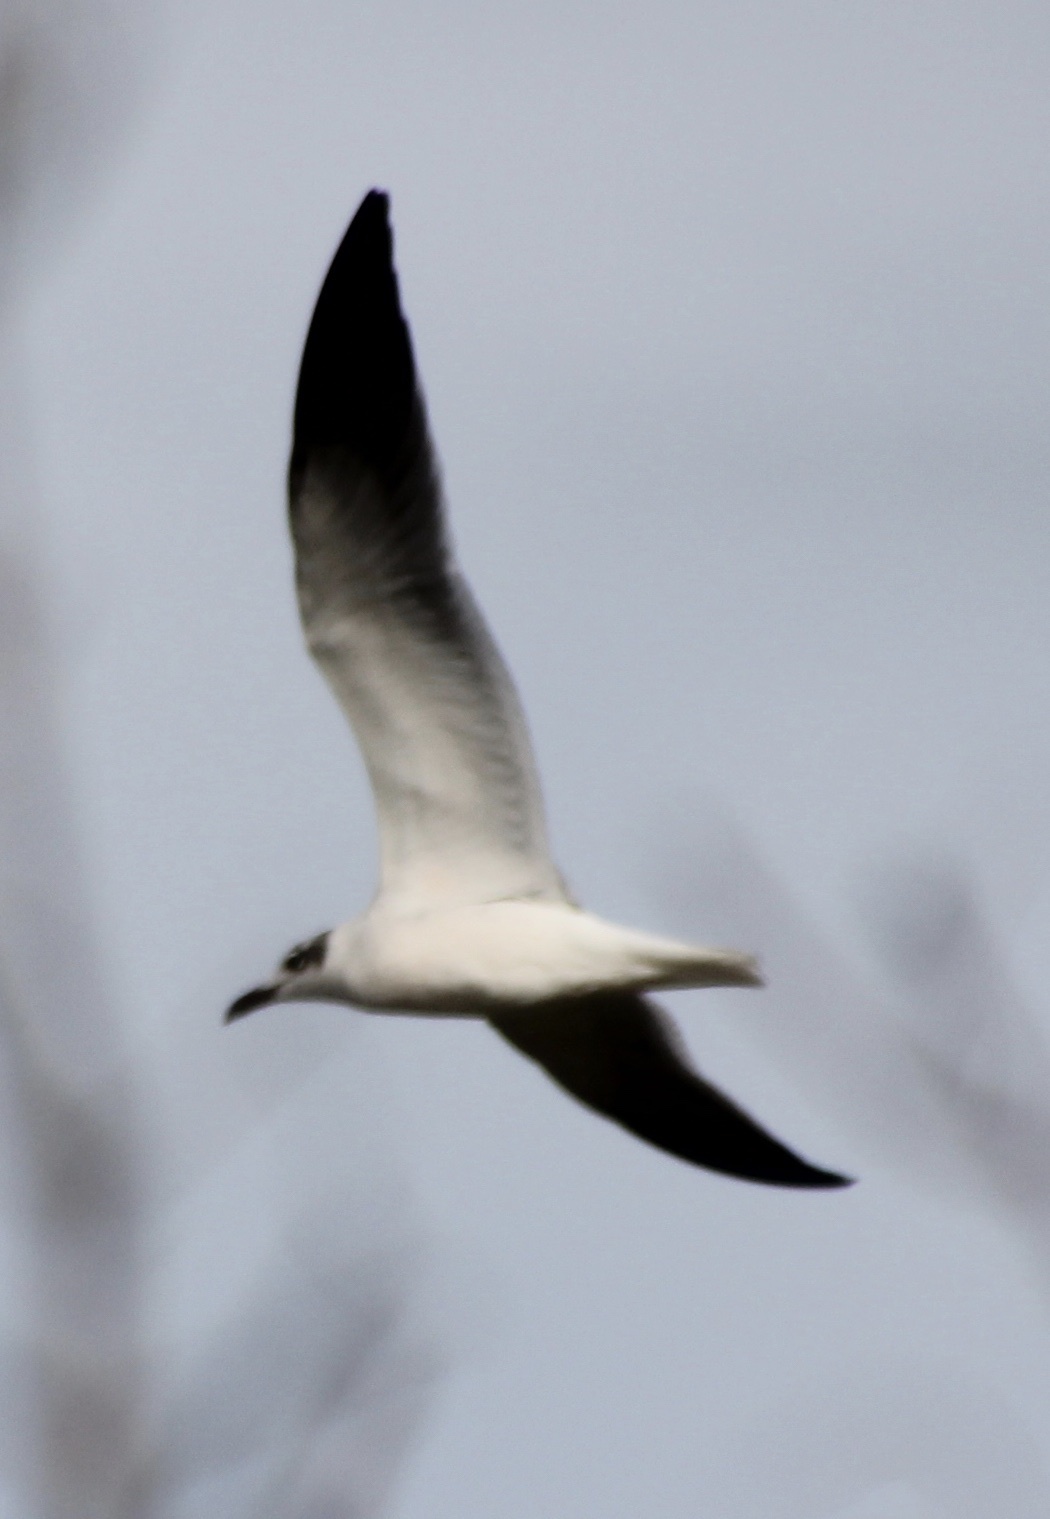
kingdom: Animalia
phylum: Chordata
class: Aves
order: Charadriiformes
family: Laridae
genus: Leucophaeus
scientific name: Leucophaeus atricilla
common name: Laughing gull
